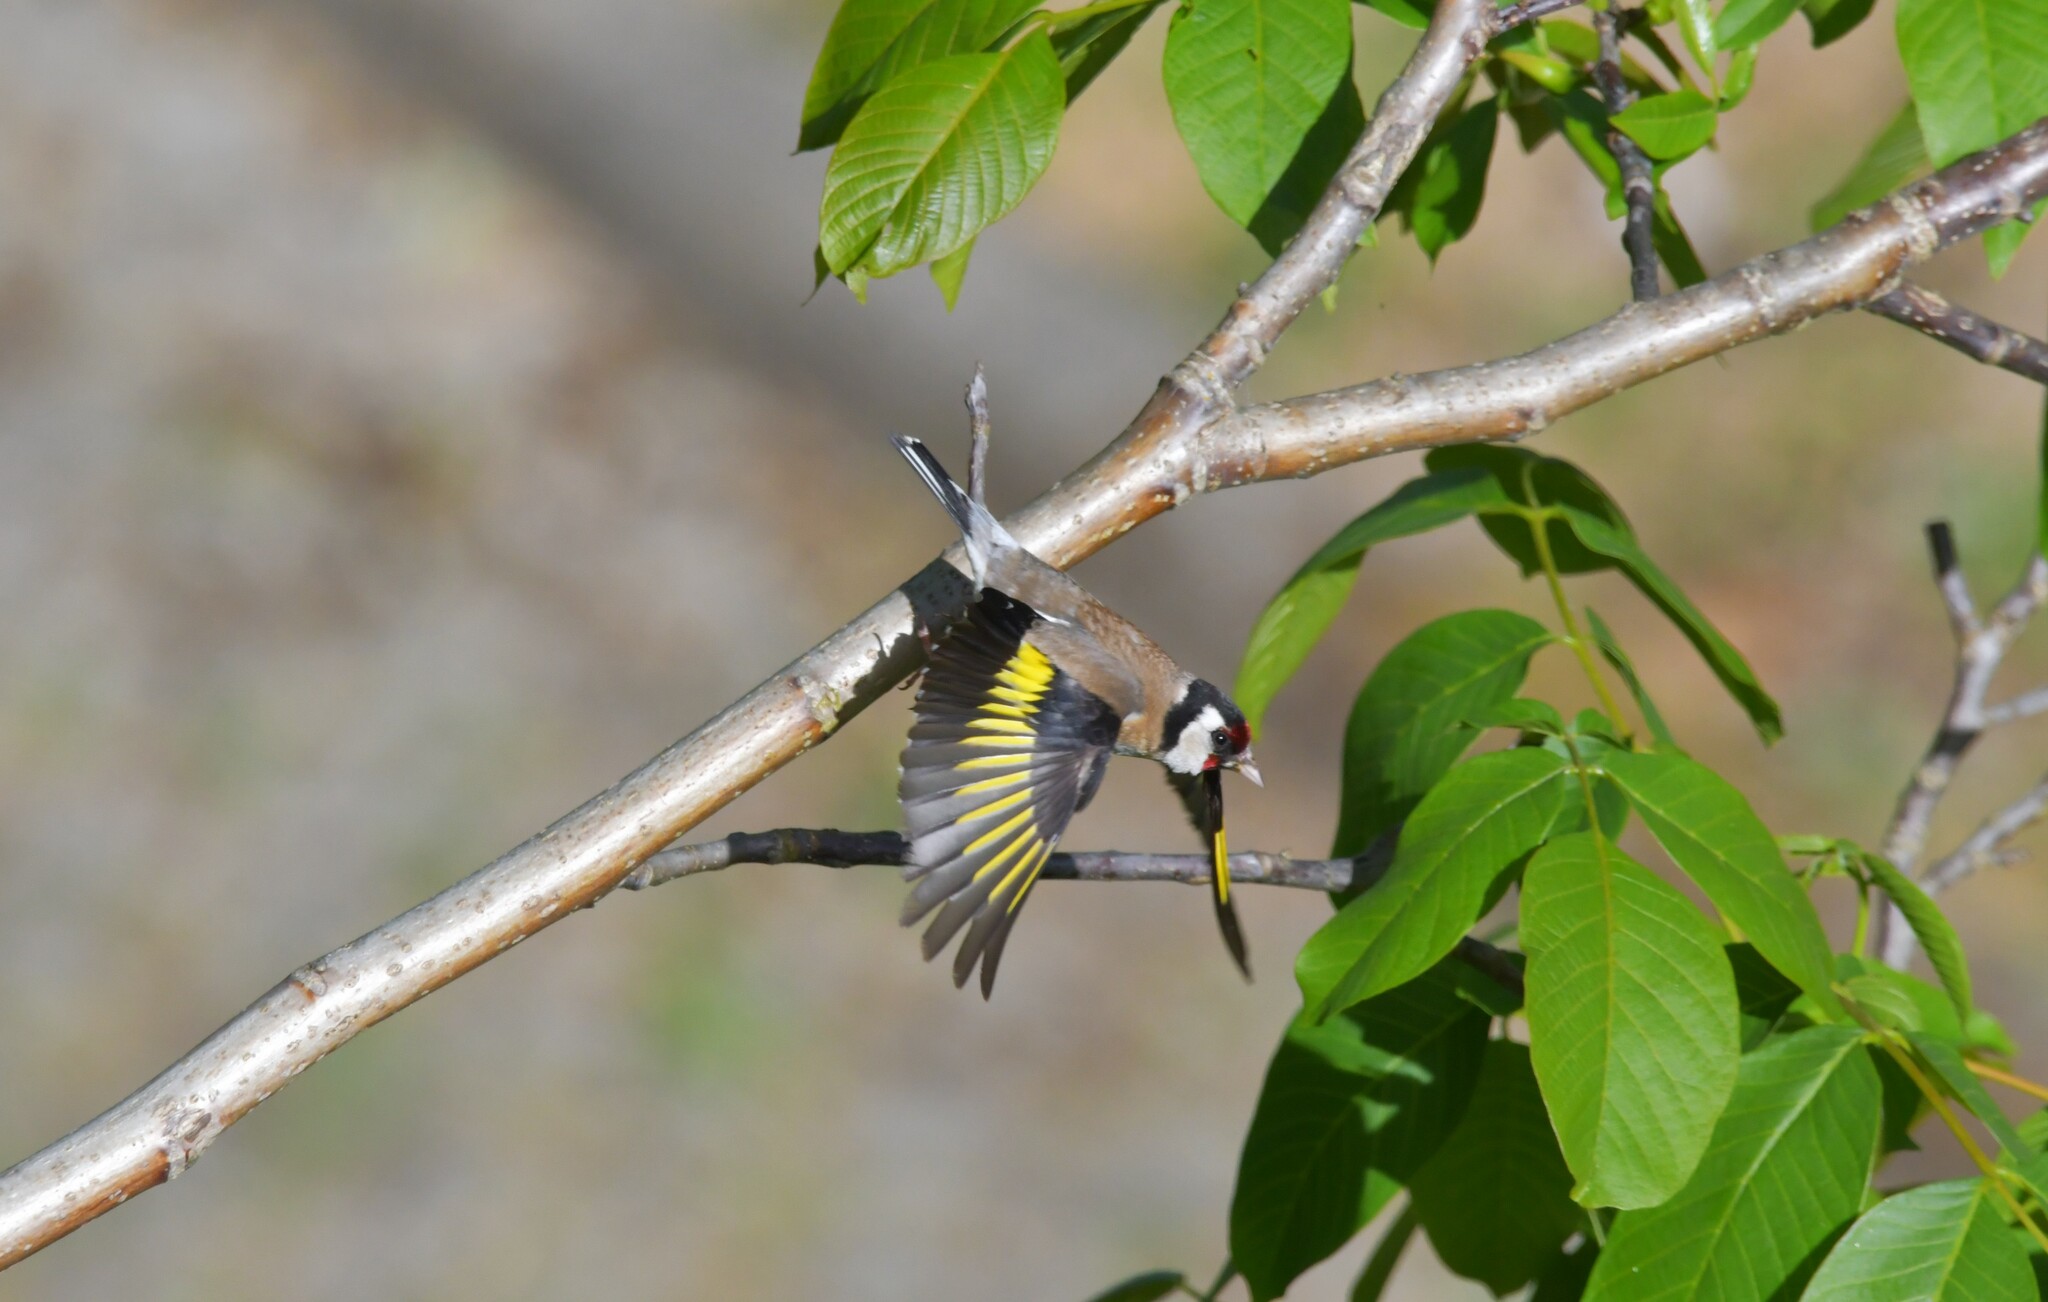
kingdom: Animalia
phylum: Chordata
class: Aves
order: Passeriformes
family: Fringillidae
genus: Carduelis
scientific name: Carduelis carduelis
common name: European goldfinch
